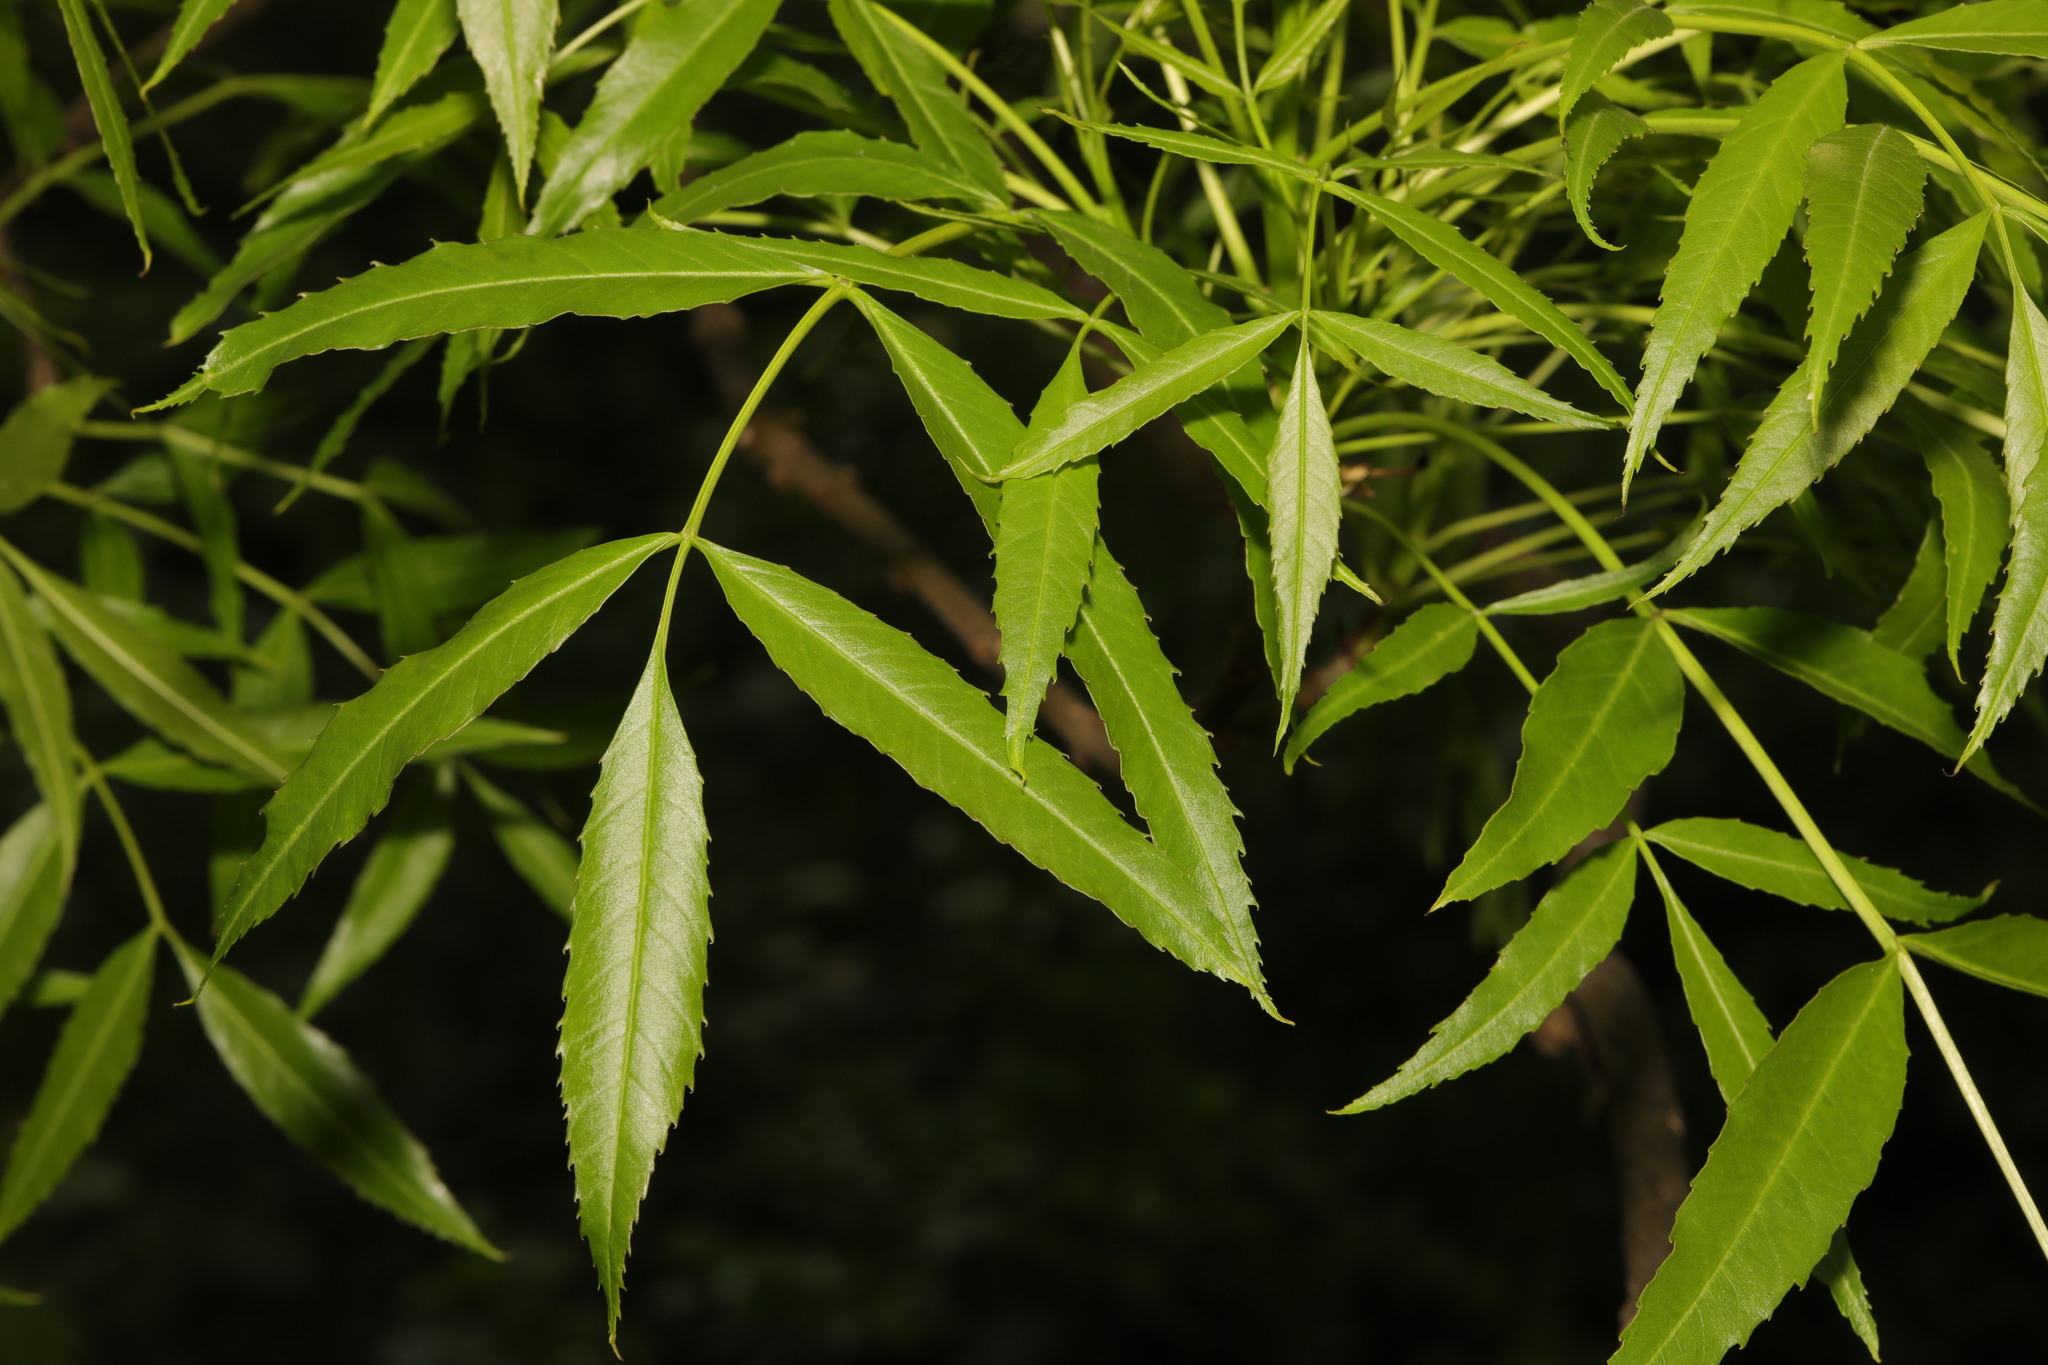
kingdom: Plantae
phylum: Tracheophyta
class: Magnoliopsida
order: Lamiales
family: Oleaceae
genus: Fraxinus
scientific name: Fraxinus angustifolia
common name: Narrow-leafed ash
